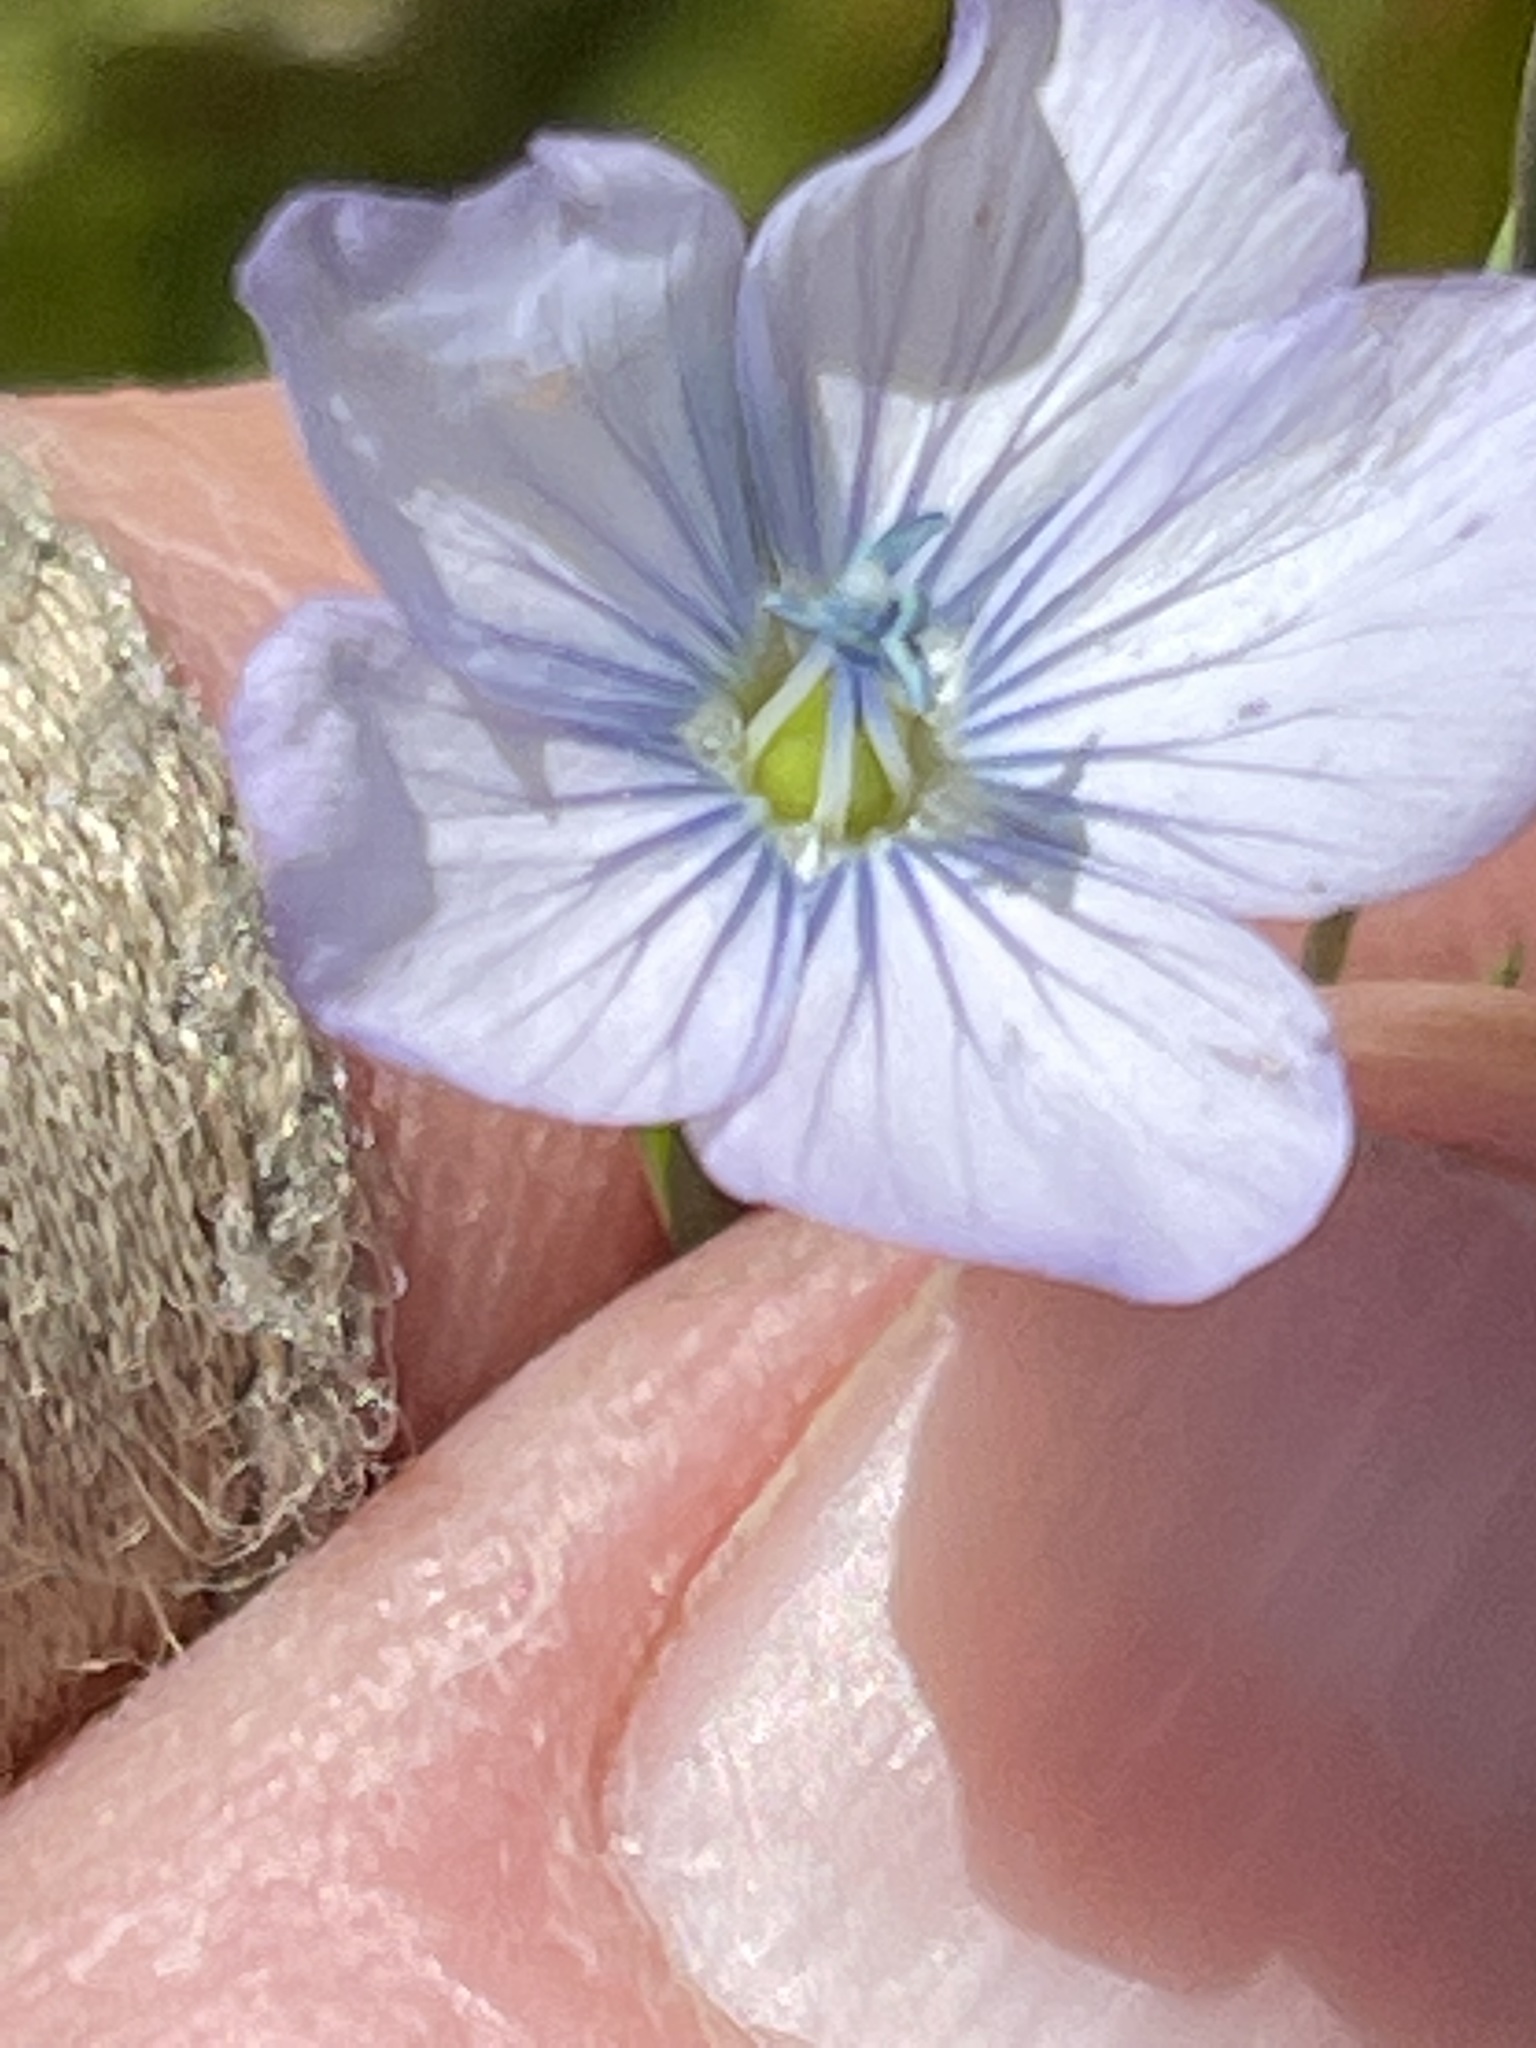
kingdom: Plantae
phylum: Tracheophyta
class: Magnoliopsida
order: Malpighiales
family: Linaceae
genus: Linum
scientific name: Linum bienne
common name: Pale flax
